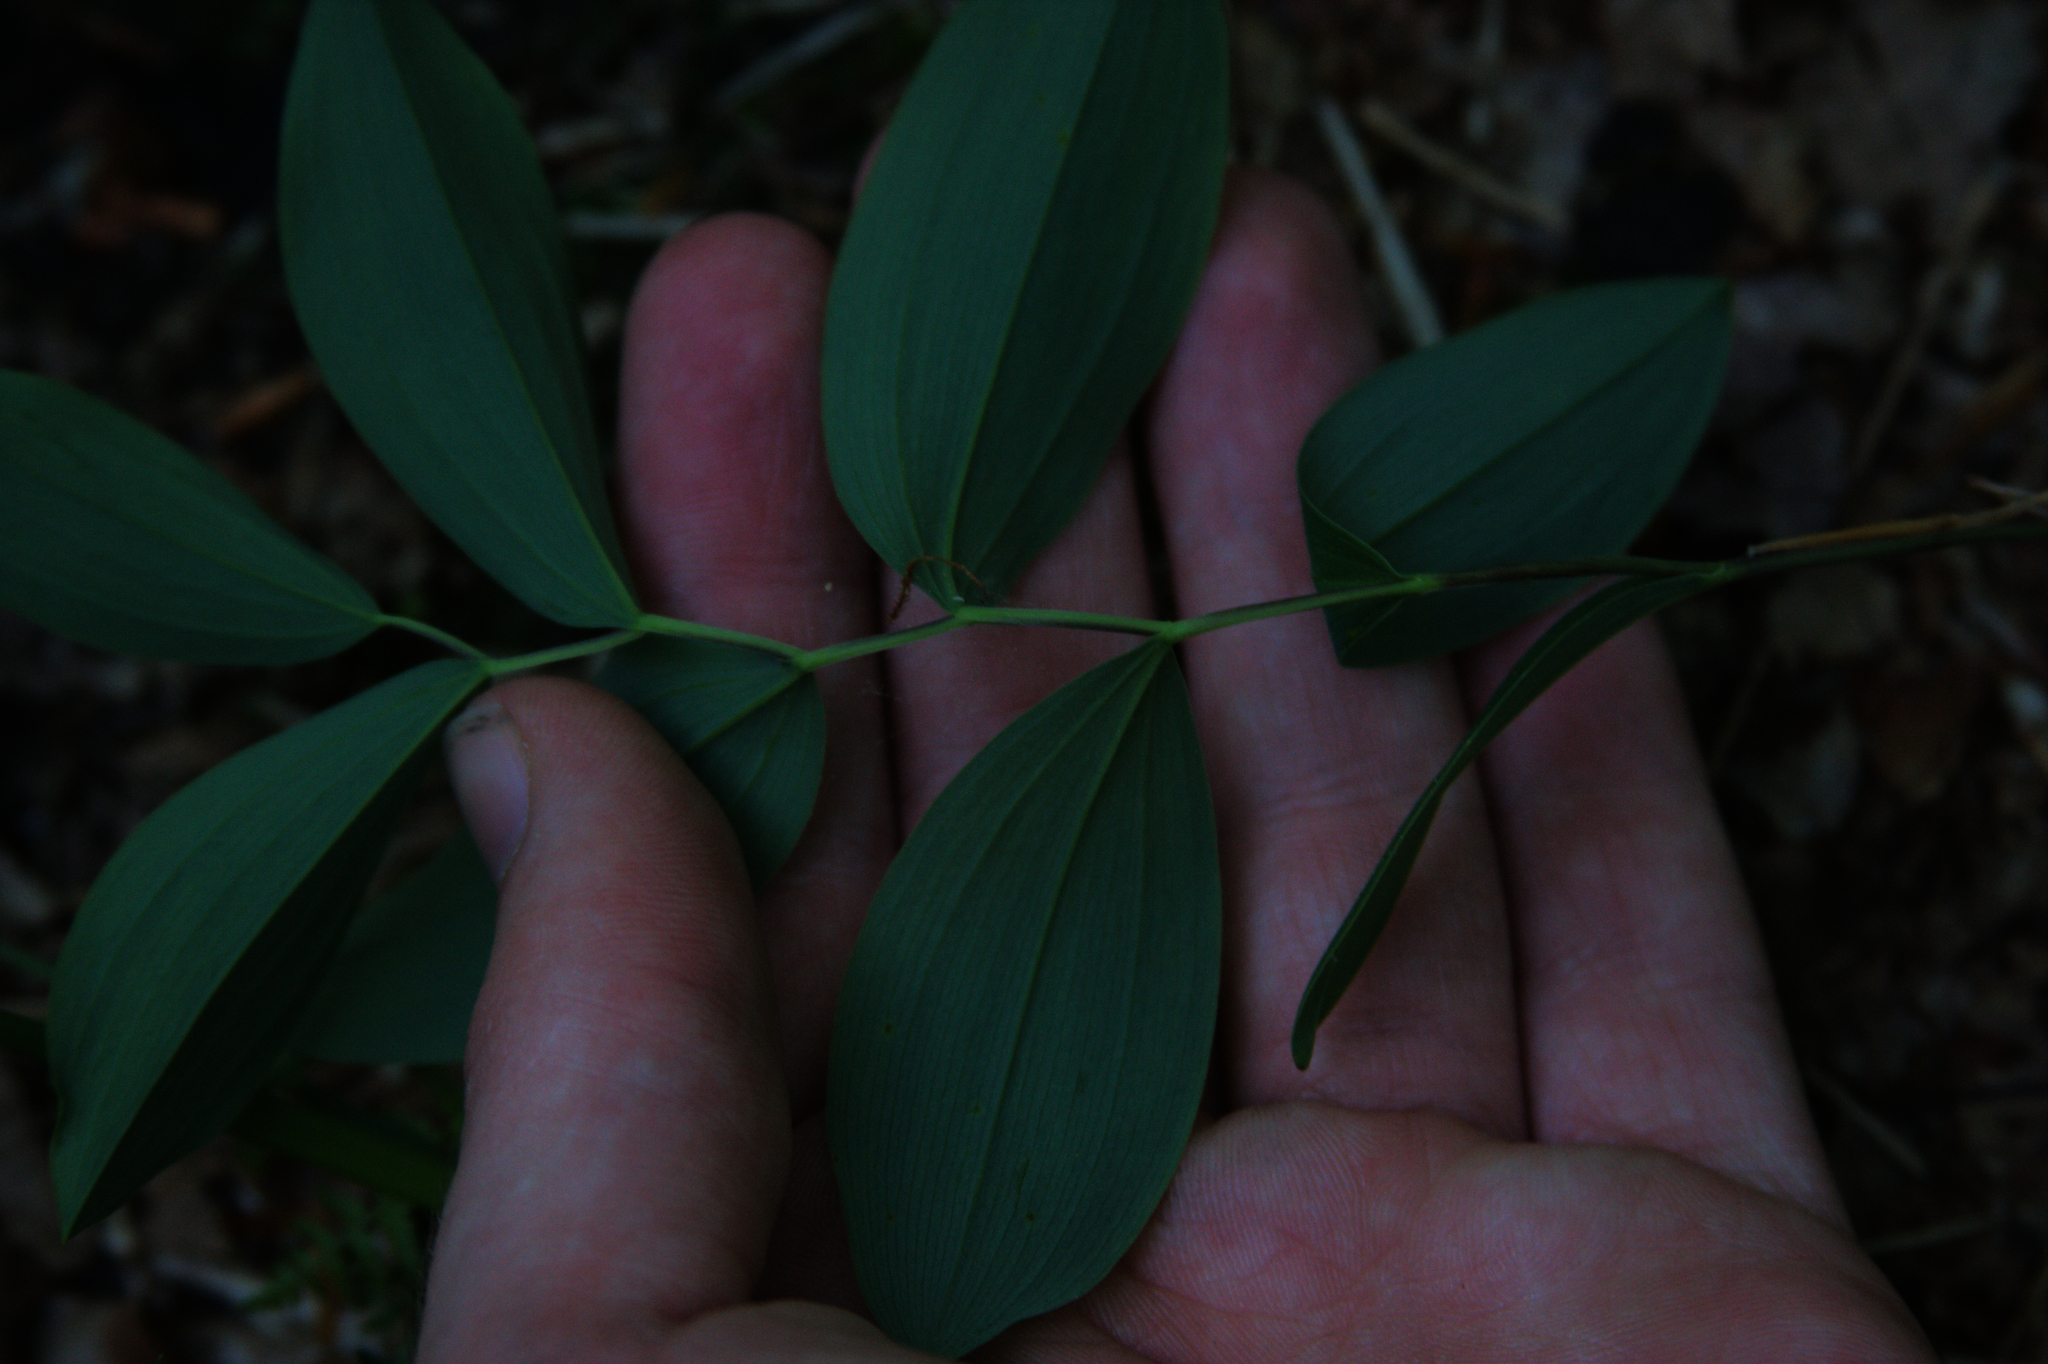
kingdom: Plantae
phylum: Tracheophyta
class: Liliopsida
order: Liliales
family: Colchicaceae
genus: Uvularia
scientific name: Uvularia sessilifolia
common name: Straw-lily
